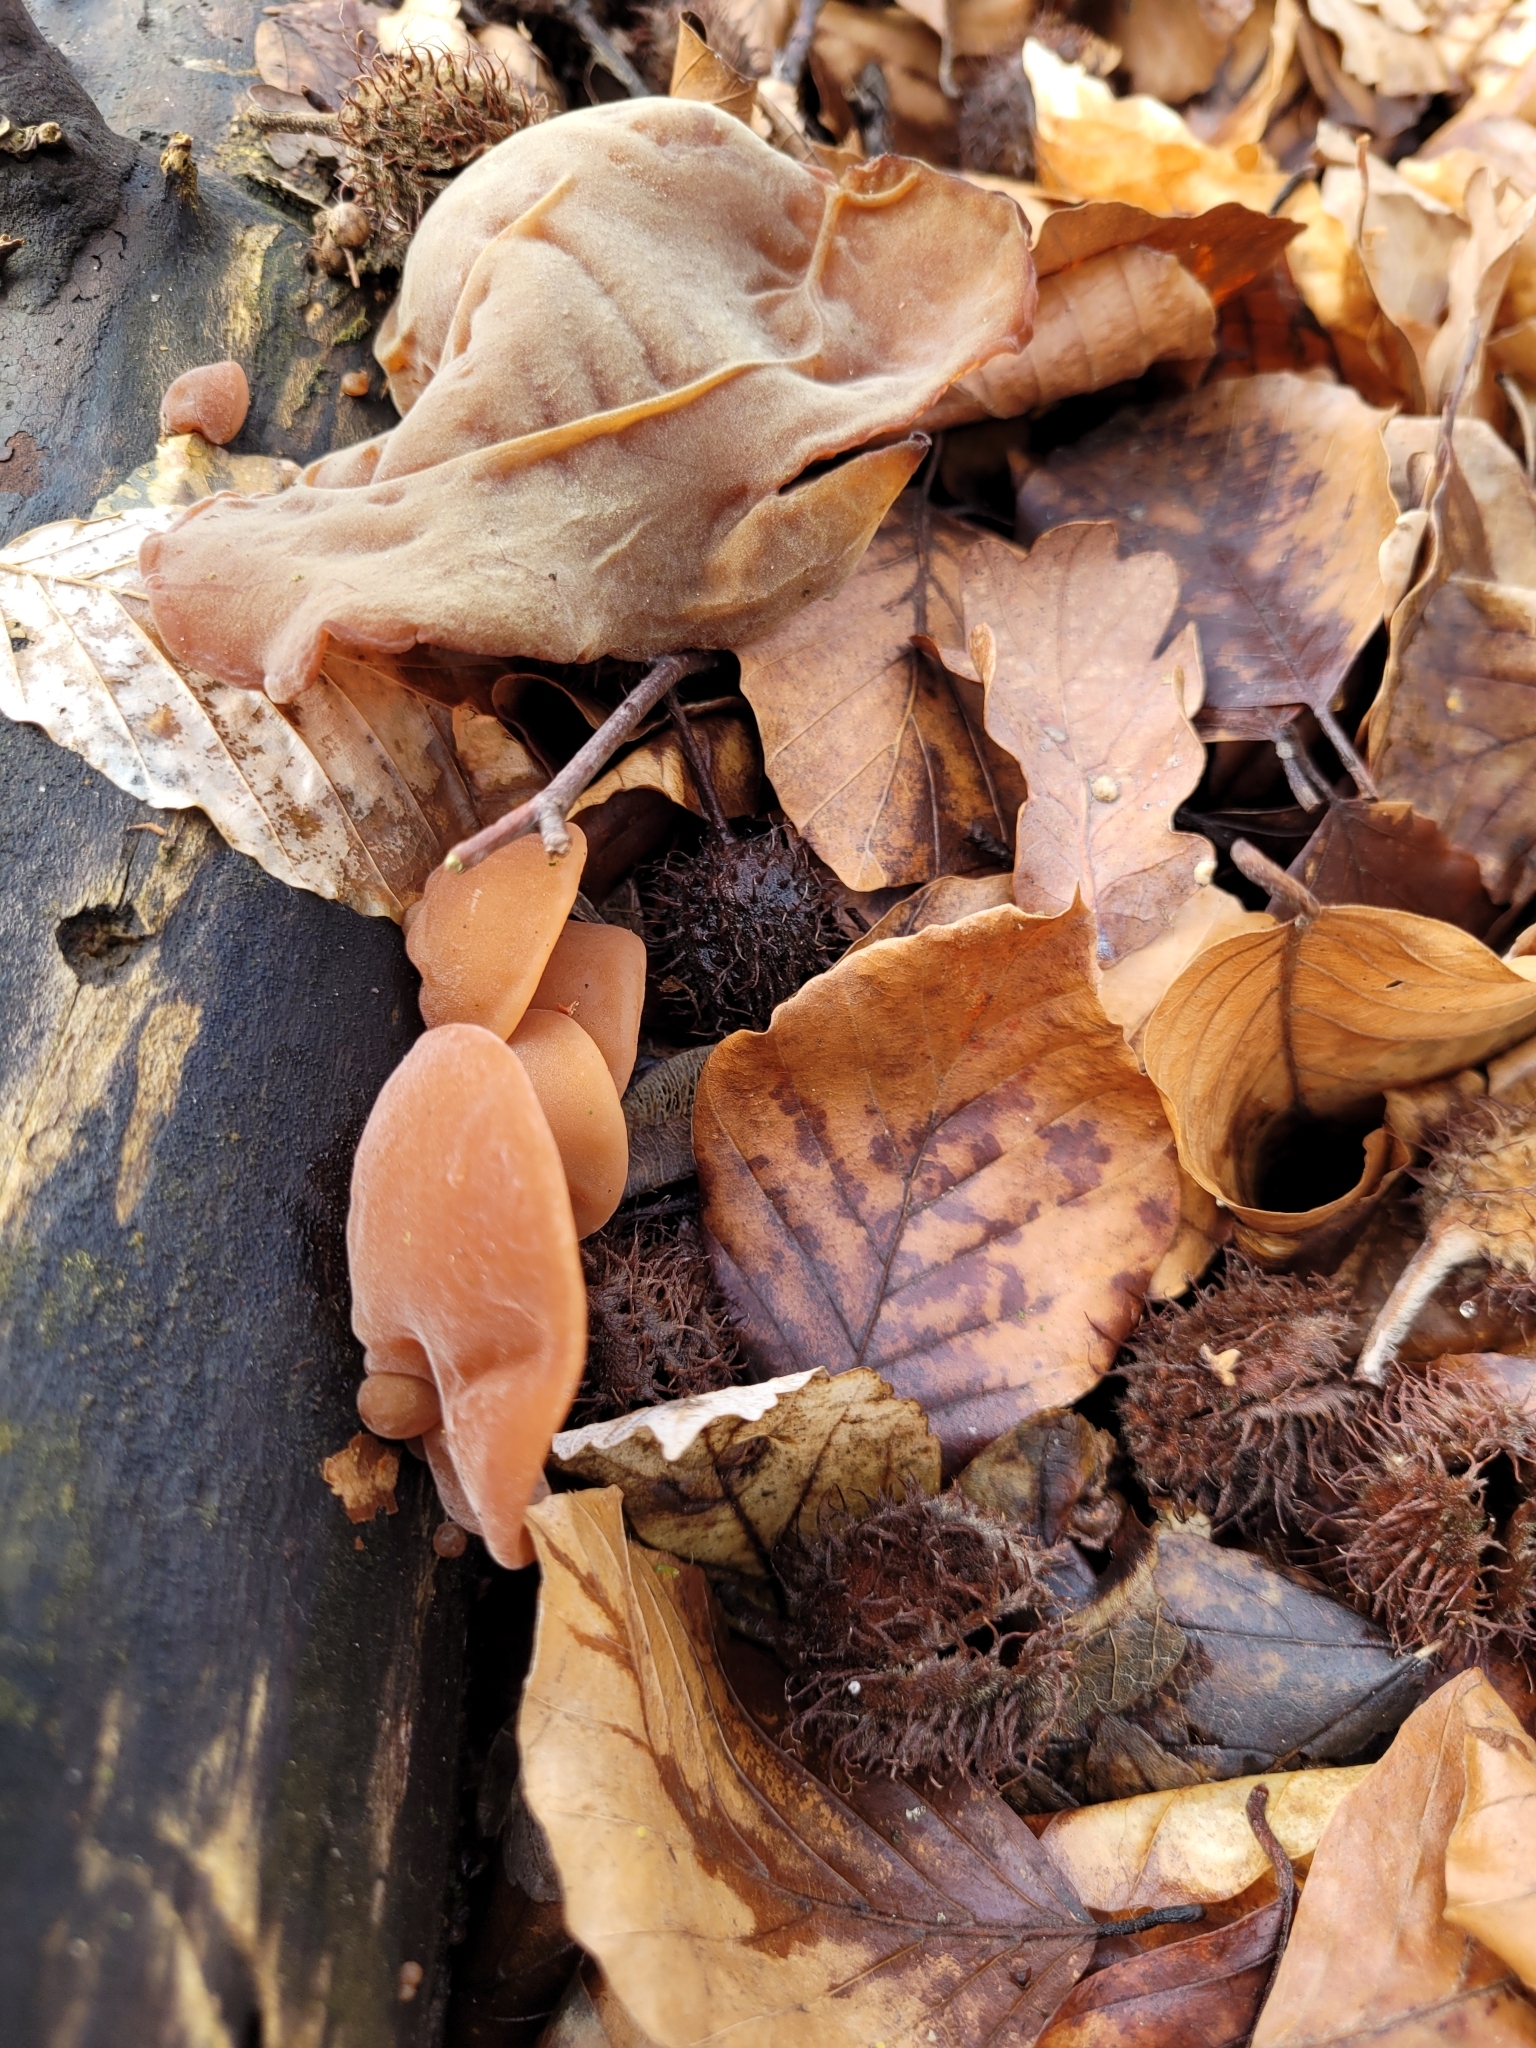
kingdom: Fungi
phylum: Basidiomycota
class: Agaricomycetes
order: Auriculariales
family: Auriculariaceae
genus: Auricularia
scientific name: Auricularia auricula-judae
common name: Jelly ear
